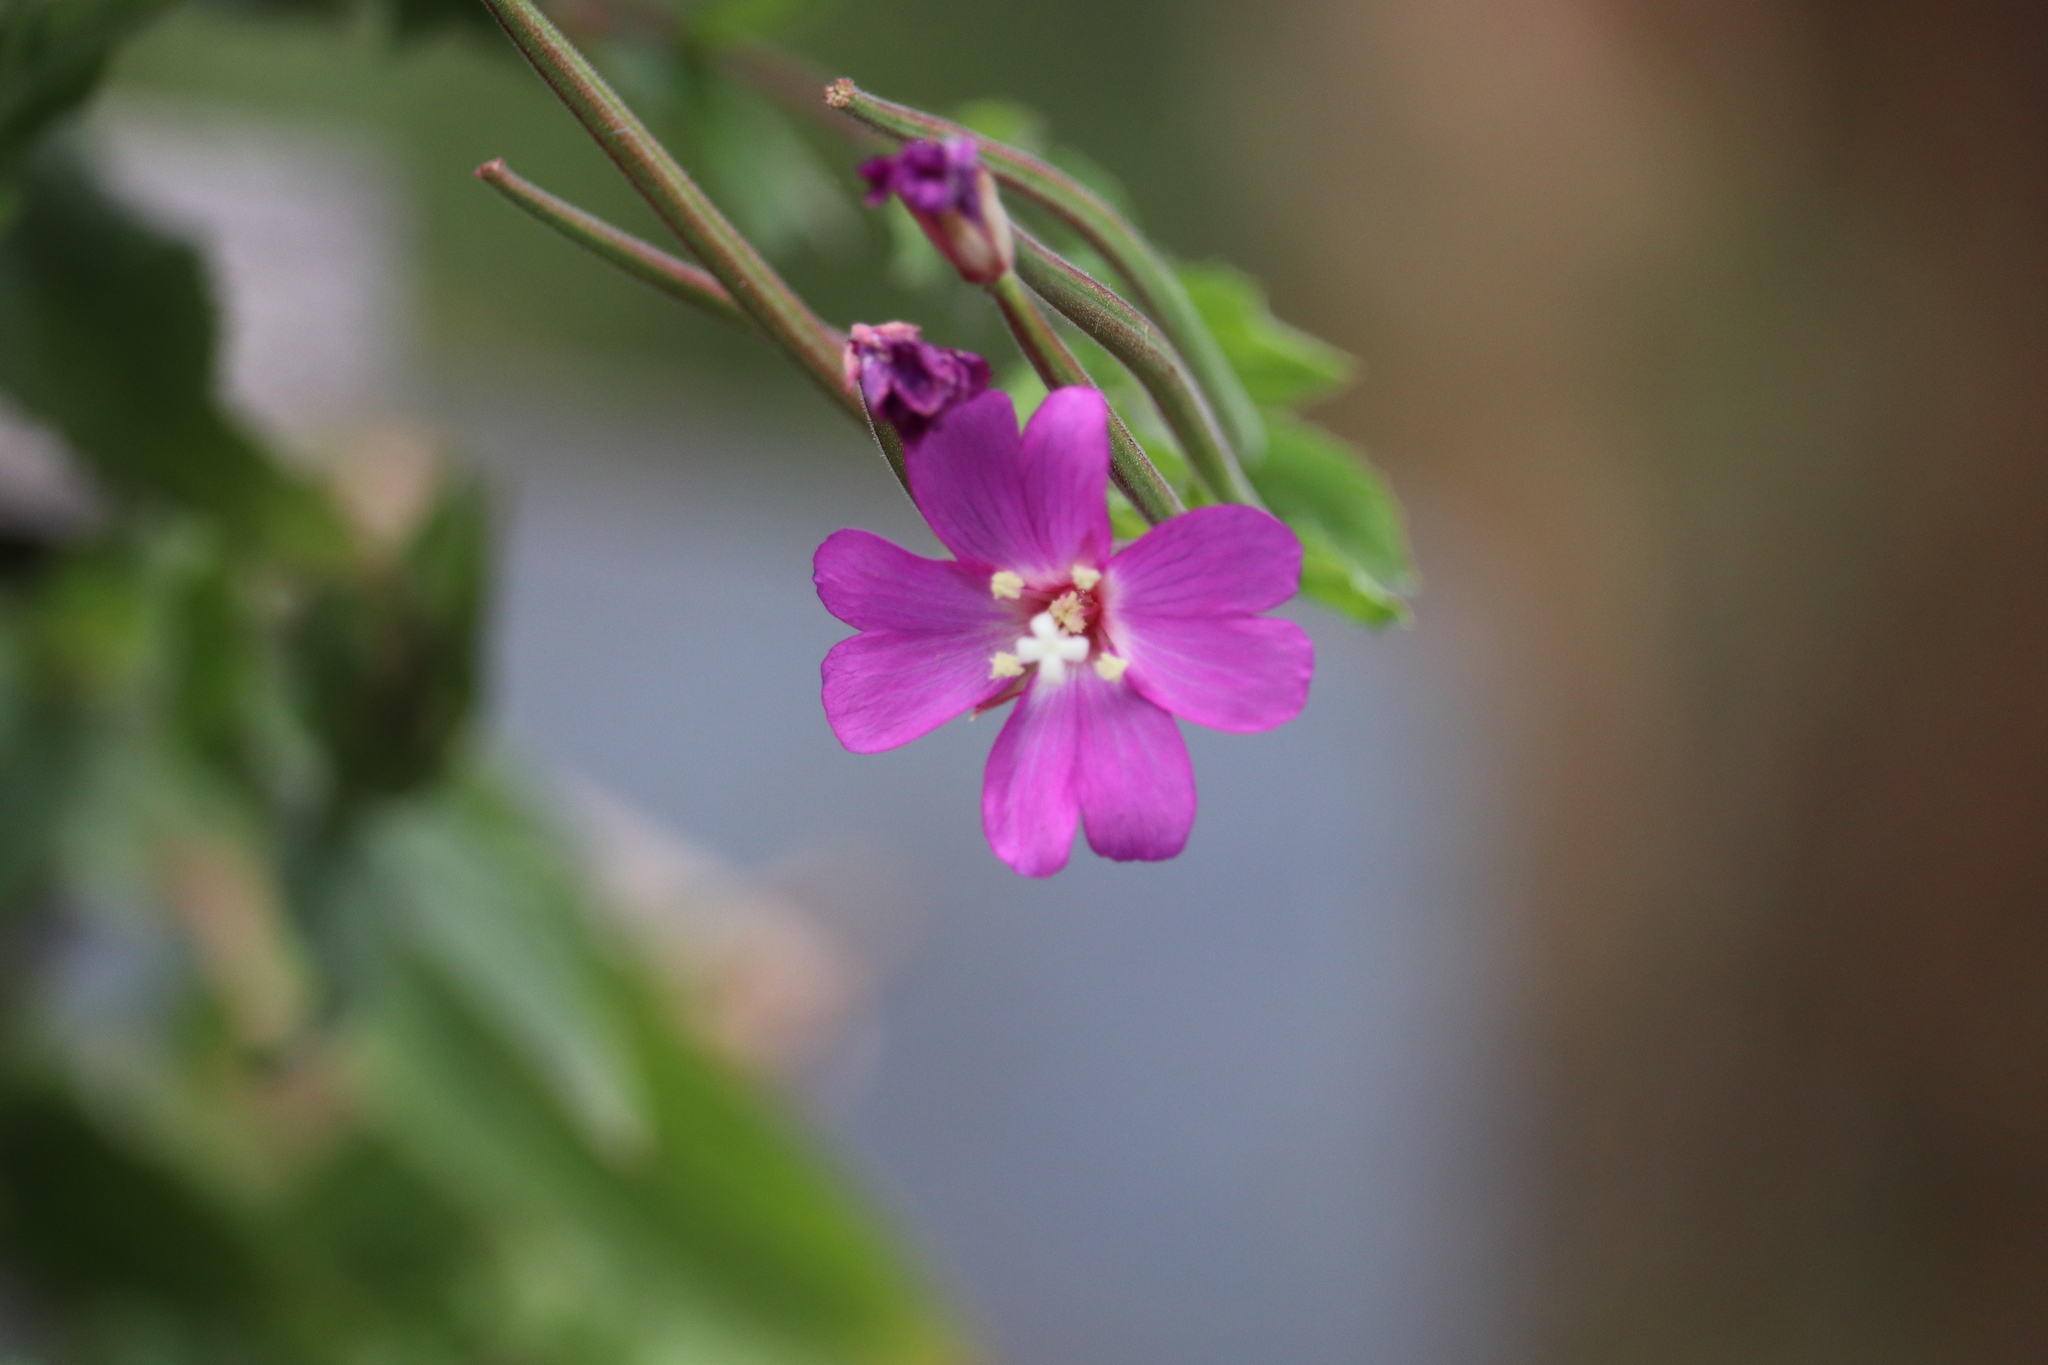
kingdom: Plantae
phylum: Tracheophyta
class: Magnoliopsida
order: Myrtales
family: Onagraceae
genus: Epilobium
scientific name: Epilobium hirsutum
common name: Great willowherb
